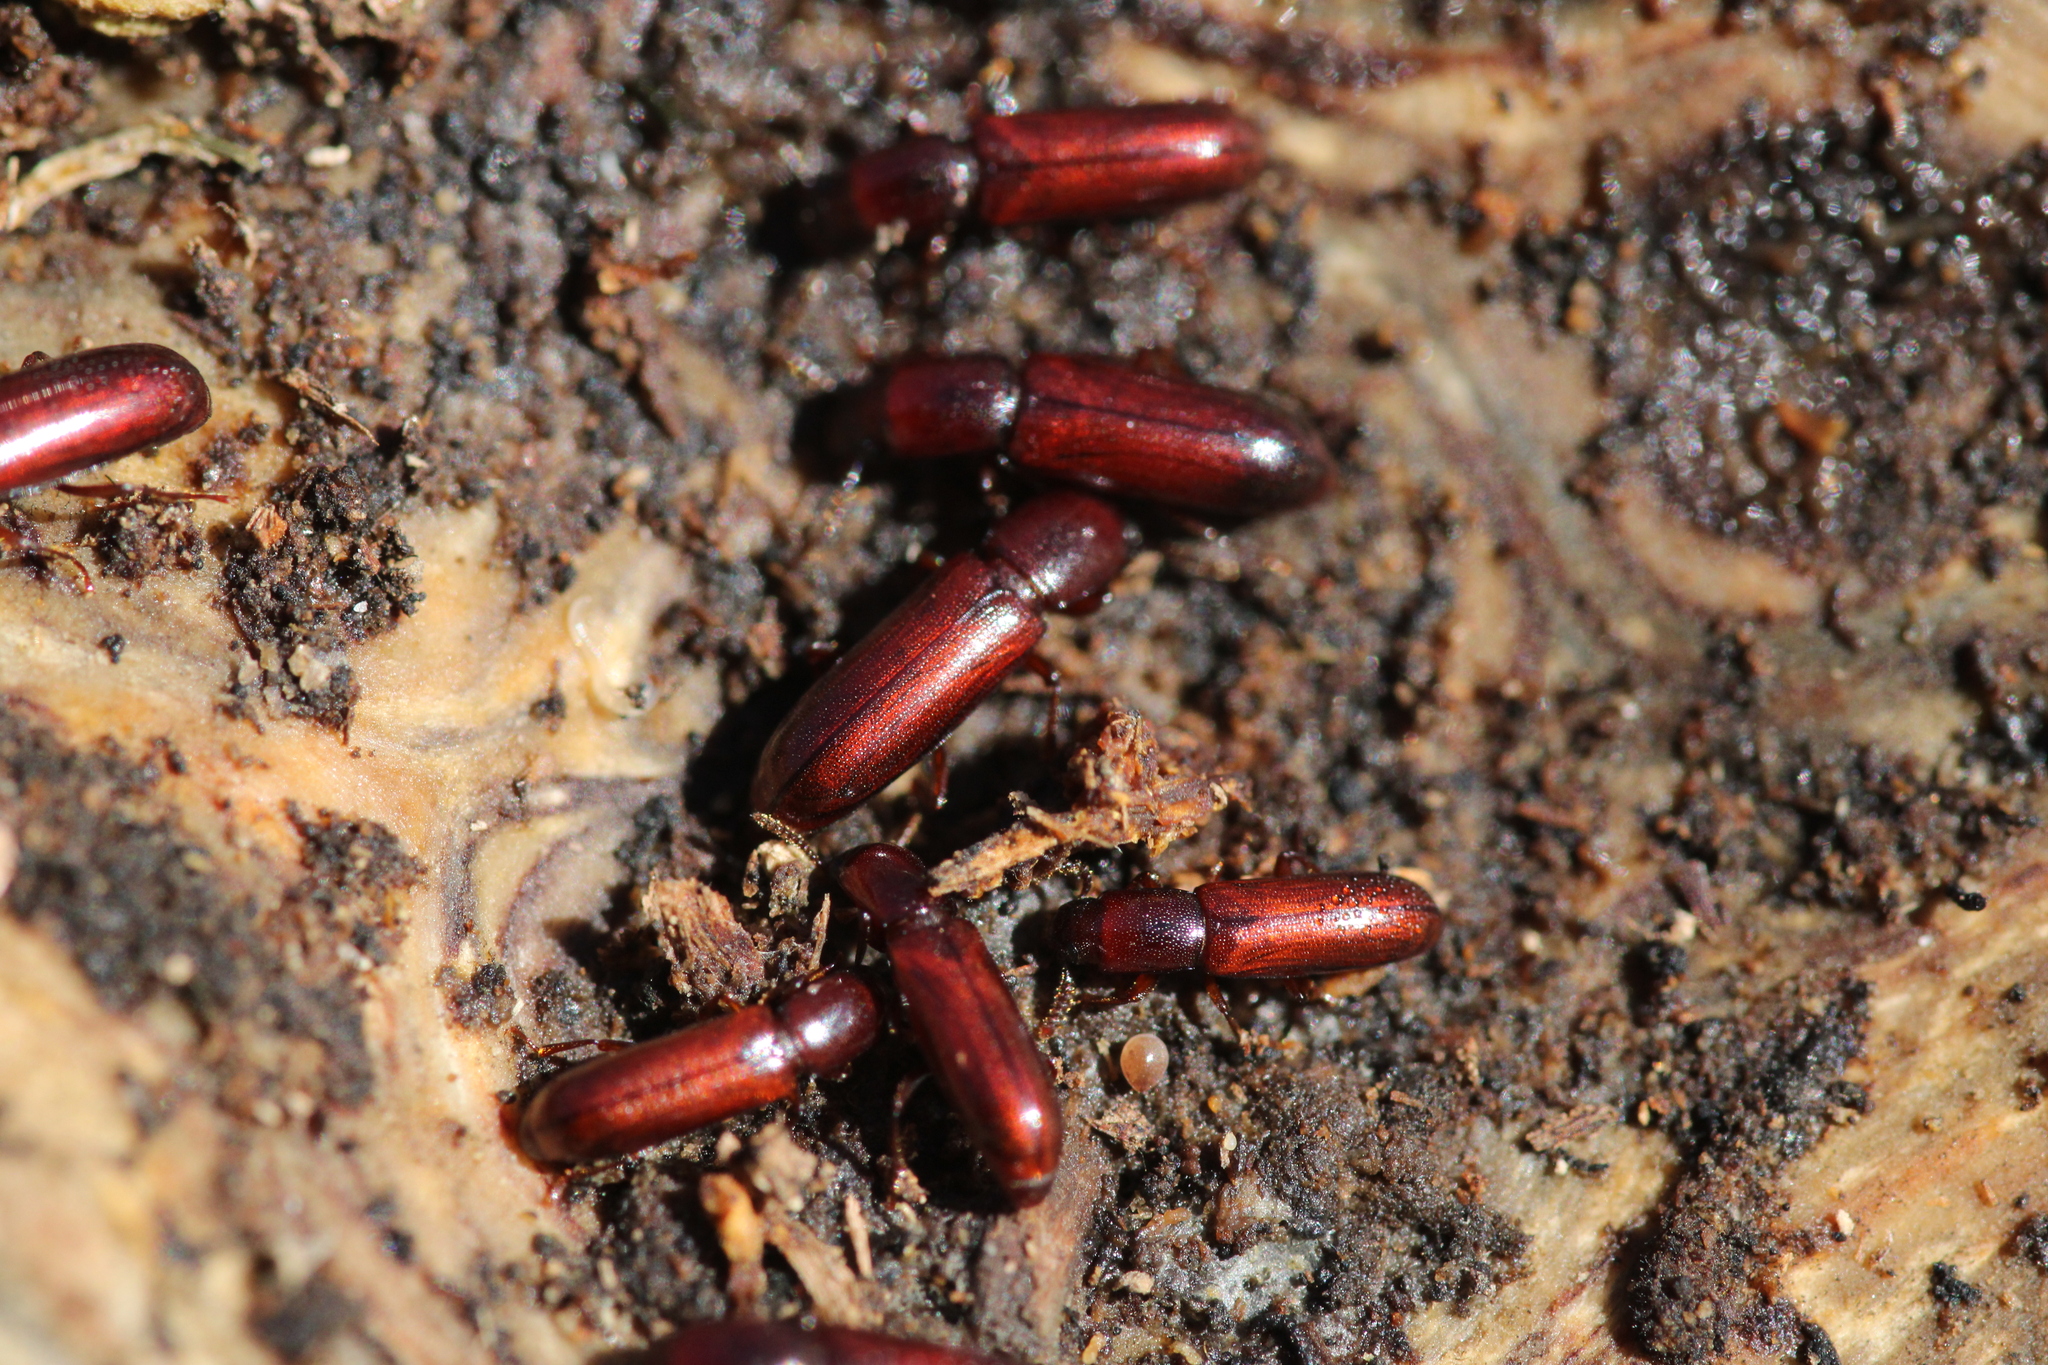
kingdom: Animalia
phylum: Arthropoda
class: Insecta
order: Coleoptera
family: Tenebrionidae
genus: Corticeus
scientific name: Corticeus unicolor
